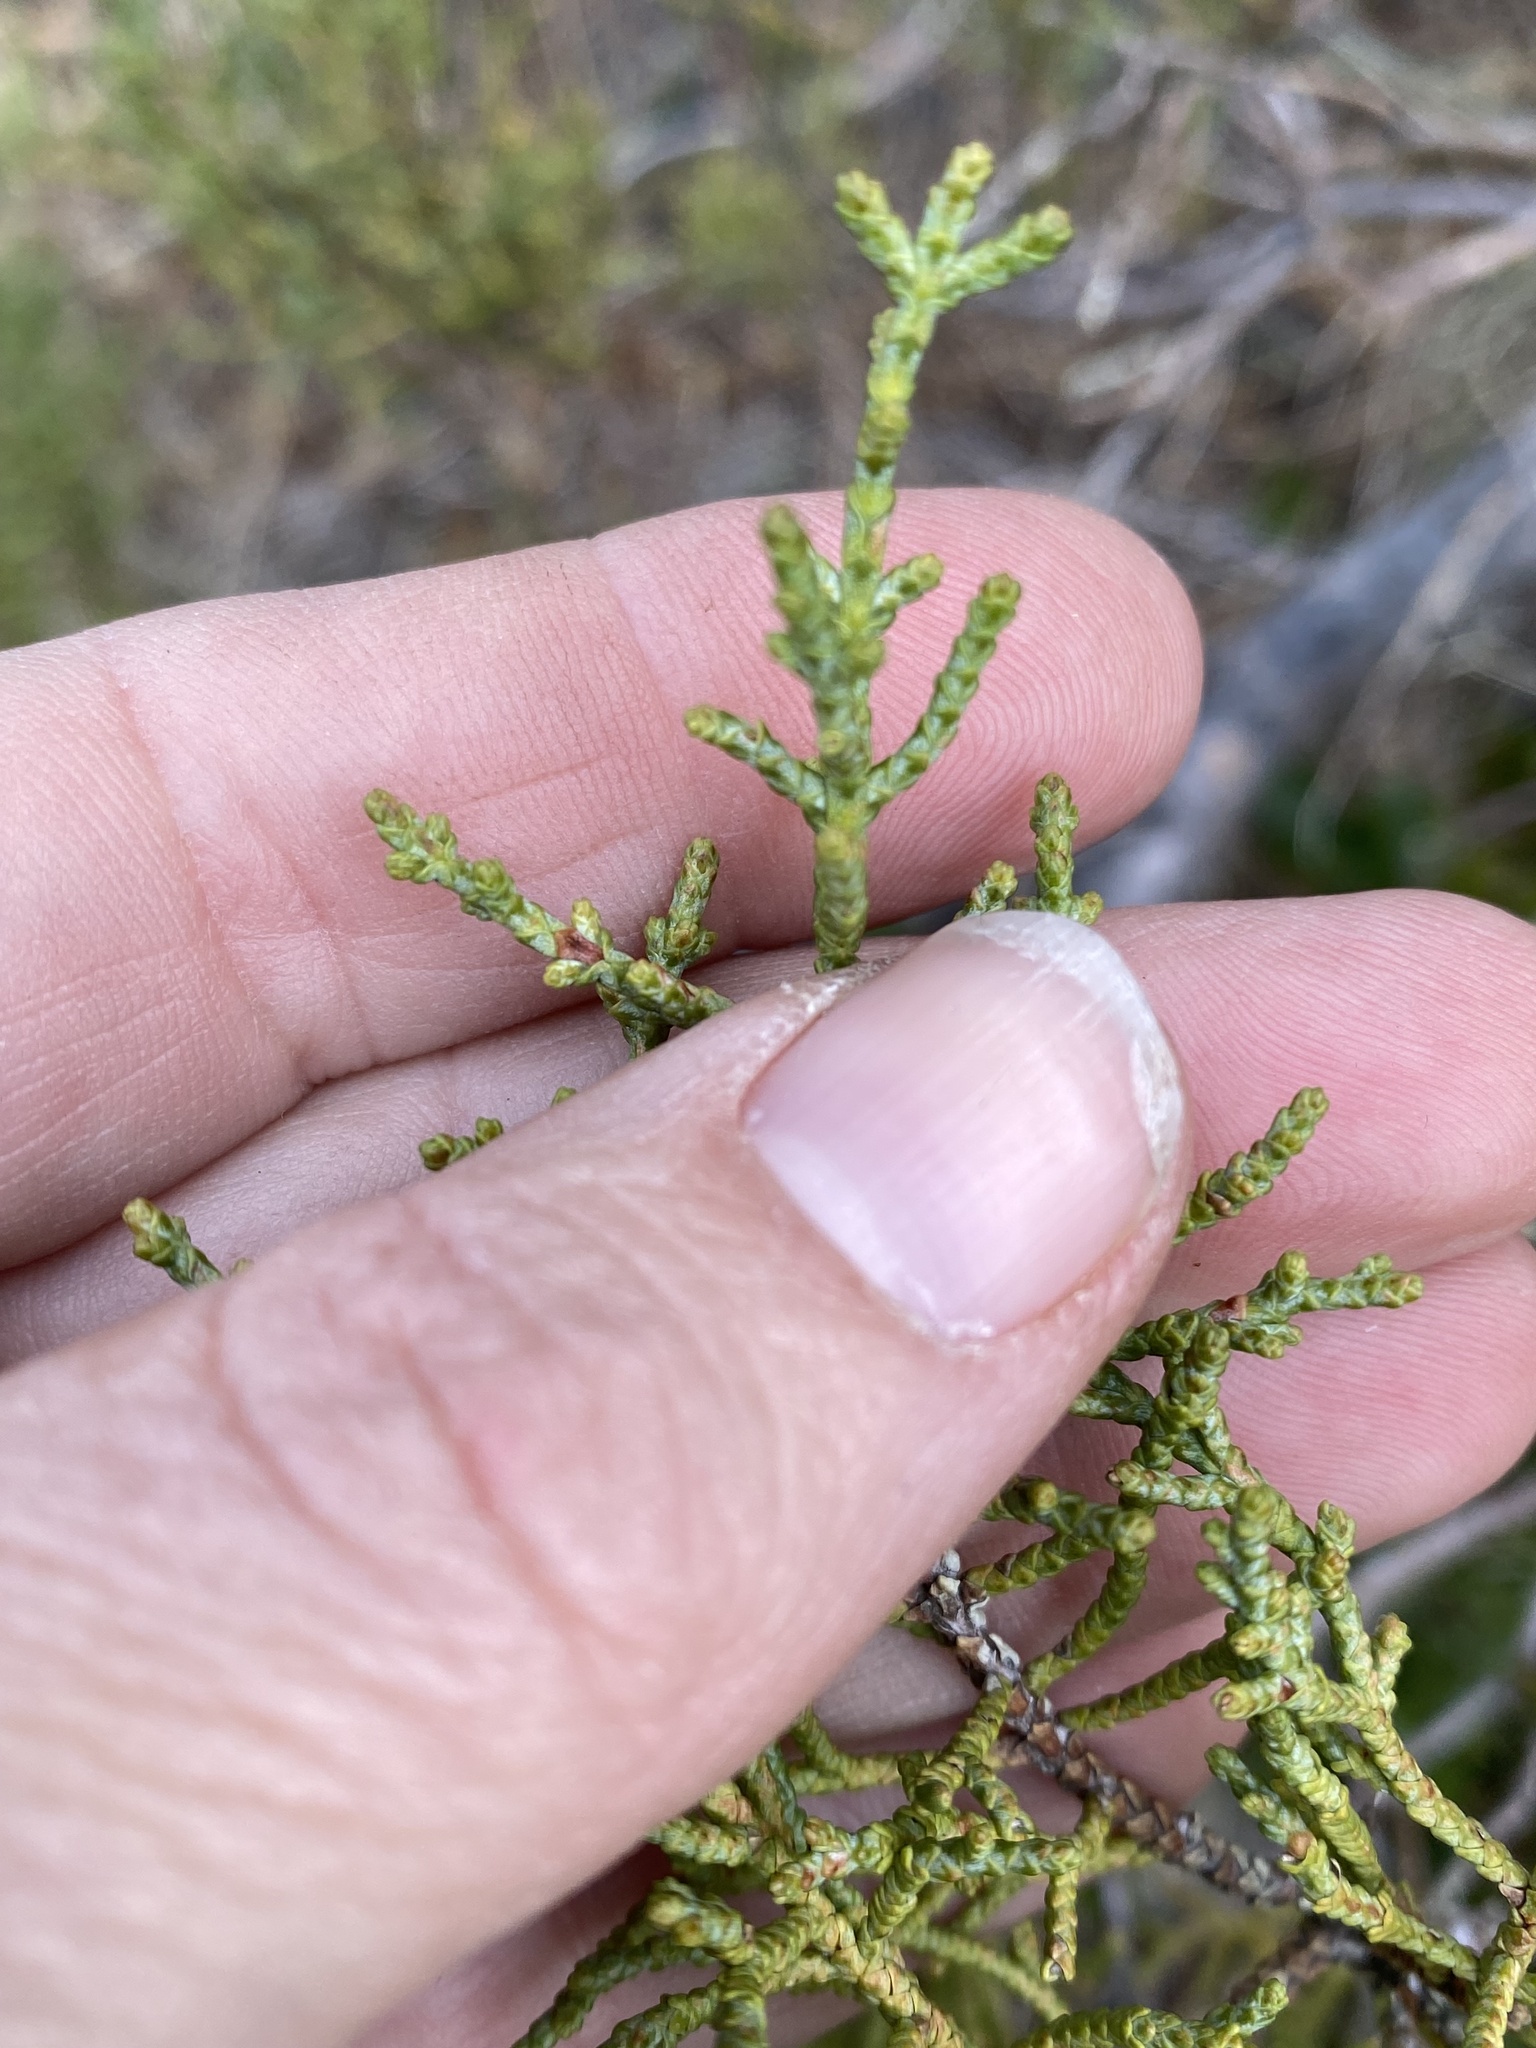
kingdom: Plantae
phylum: Tracheophyta
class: Pinopsida
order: Pinales
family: Cupressaceae
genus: Cupressus
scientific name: Cupressus sargentii
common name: Sargent cypress
